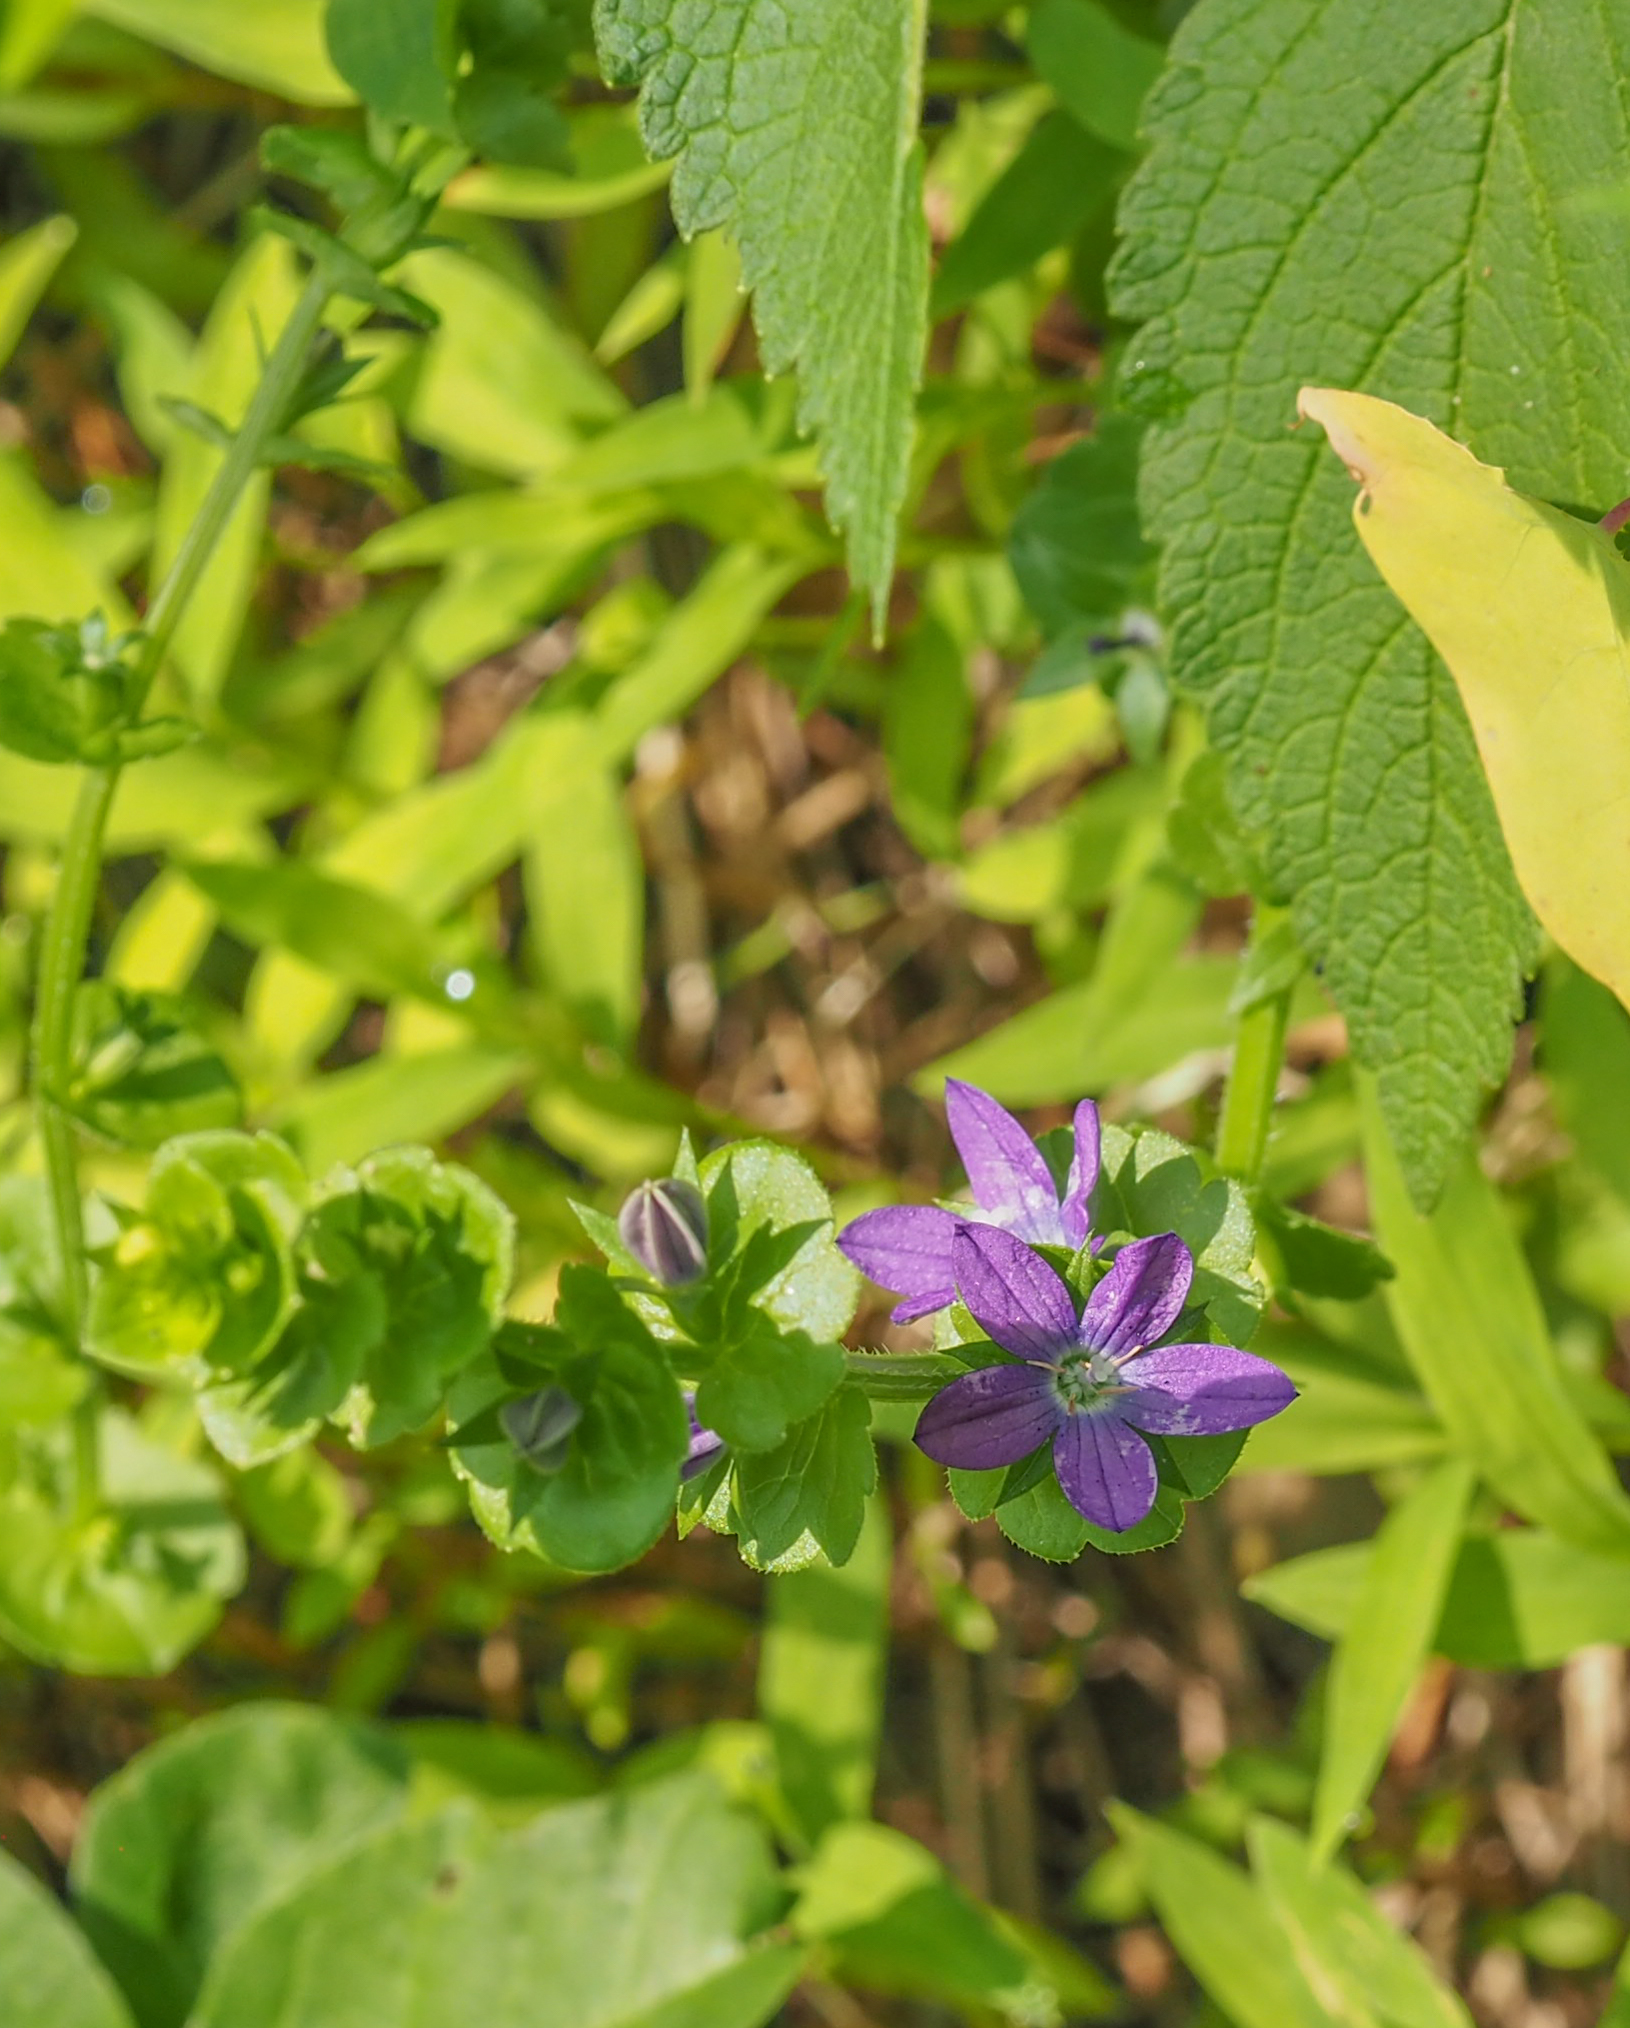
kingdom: Plantae
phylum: Tracheophyta
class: Magnoliopsida
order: Asterales
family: Campanulaceae
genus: Triodanis
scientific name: Triodanis perfoliata
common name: Clasping venus' looking-glass
